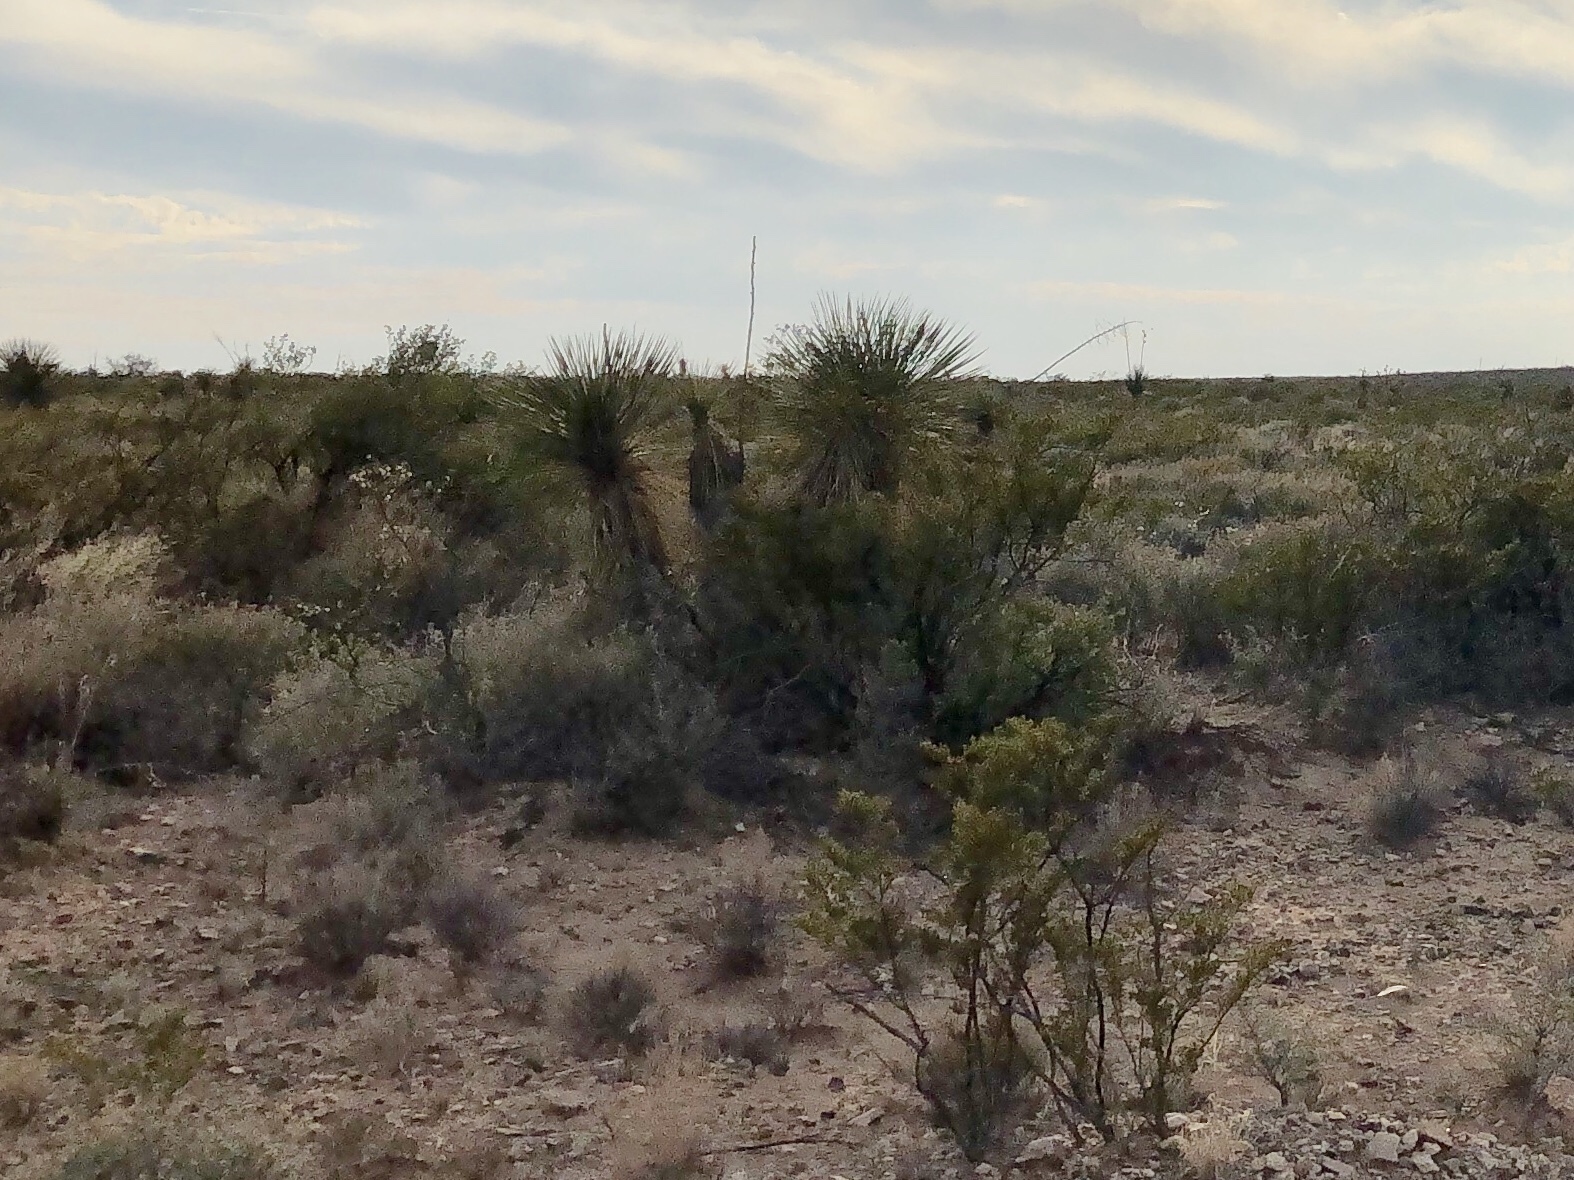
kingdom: Plantae
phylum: Tracheophyta
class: Liliopsida
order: Asparagales
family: Asparagaceae
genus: Yucca
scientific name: Yucca elata
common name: Palmella
